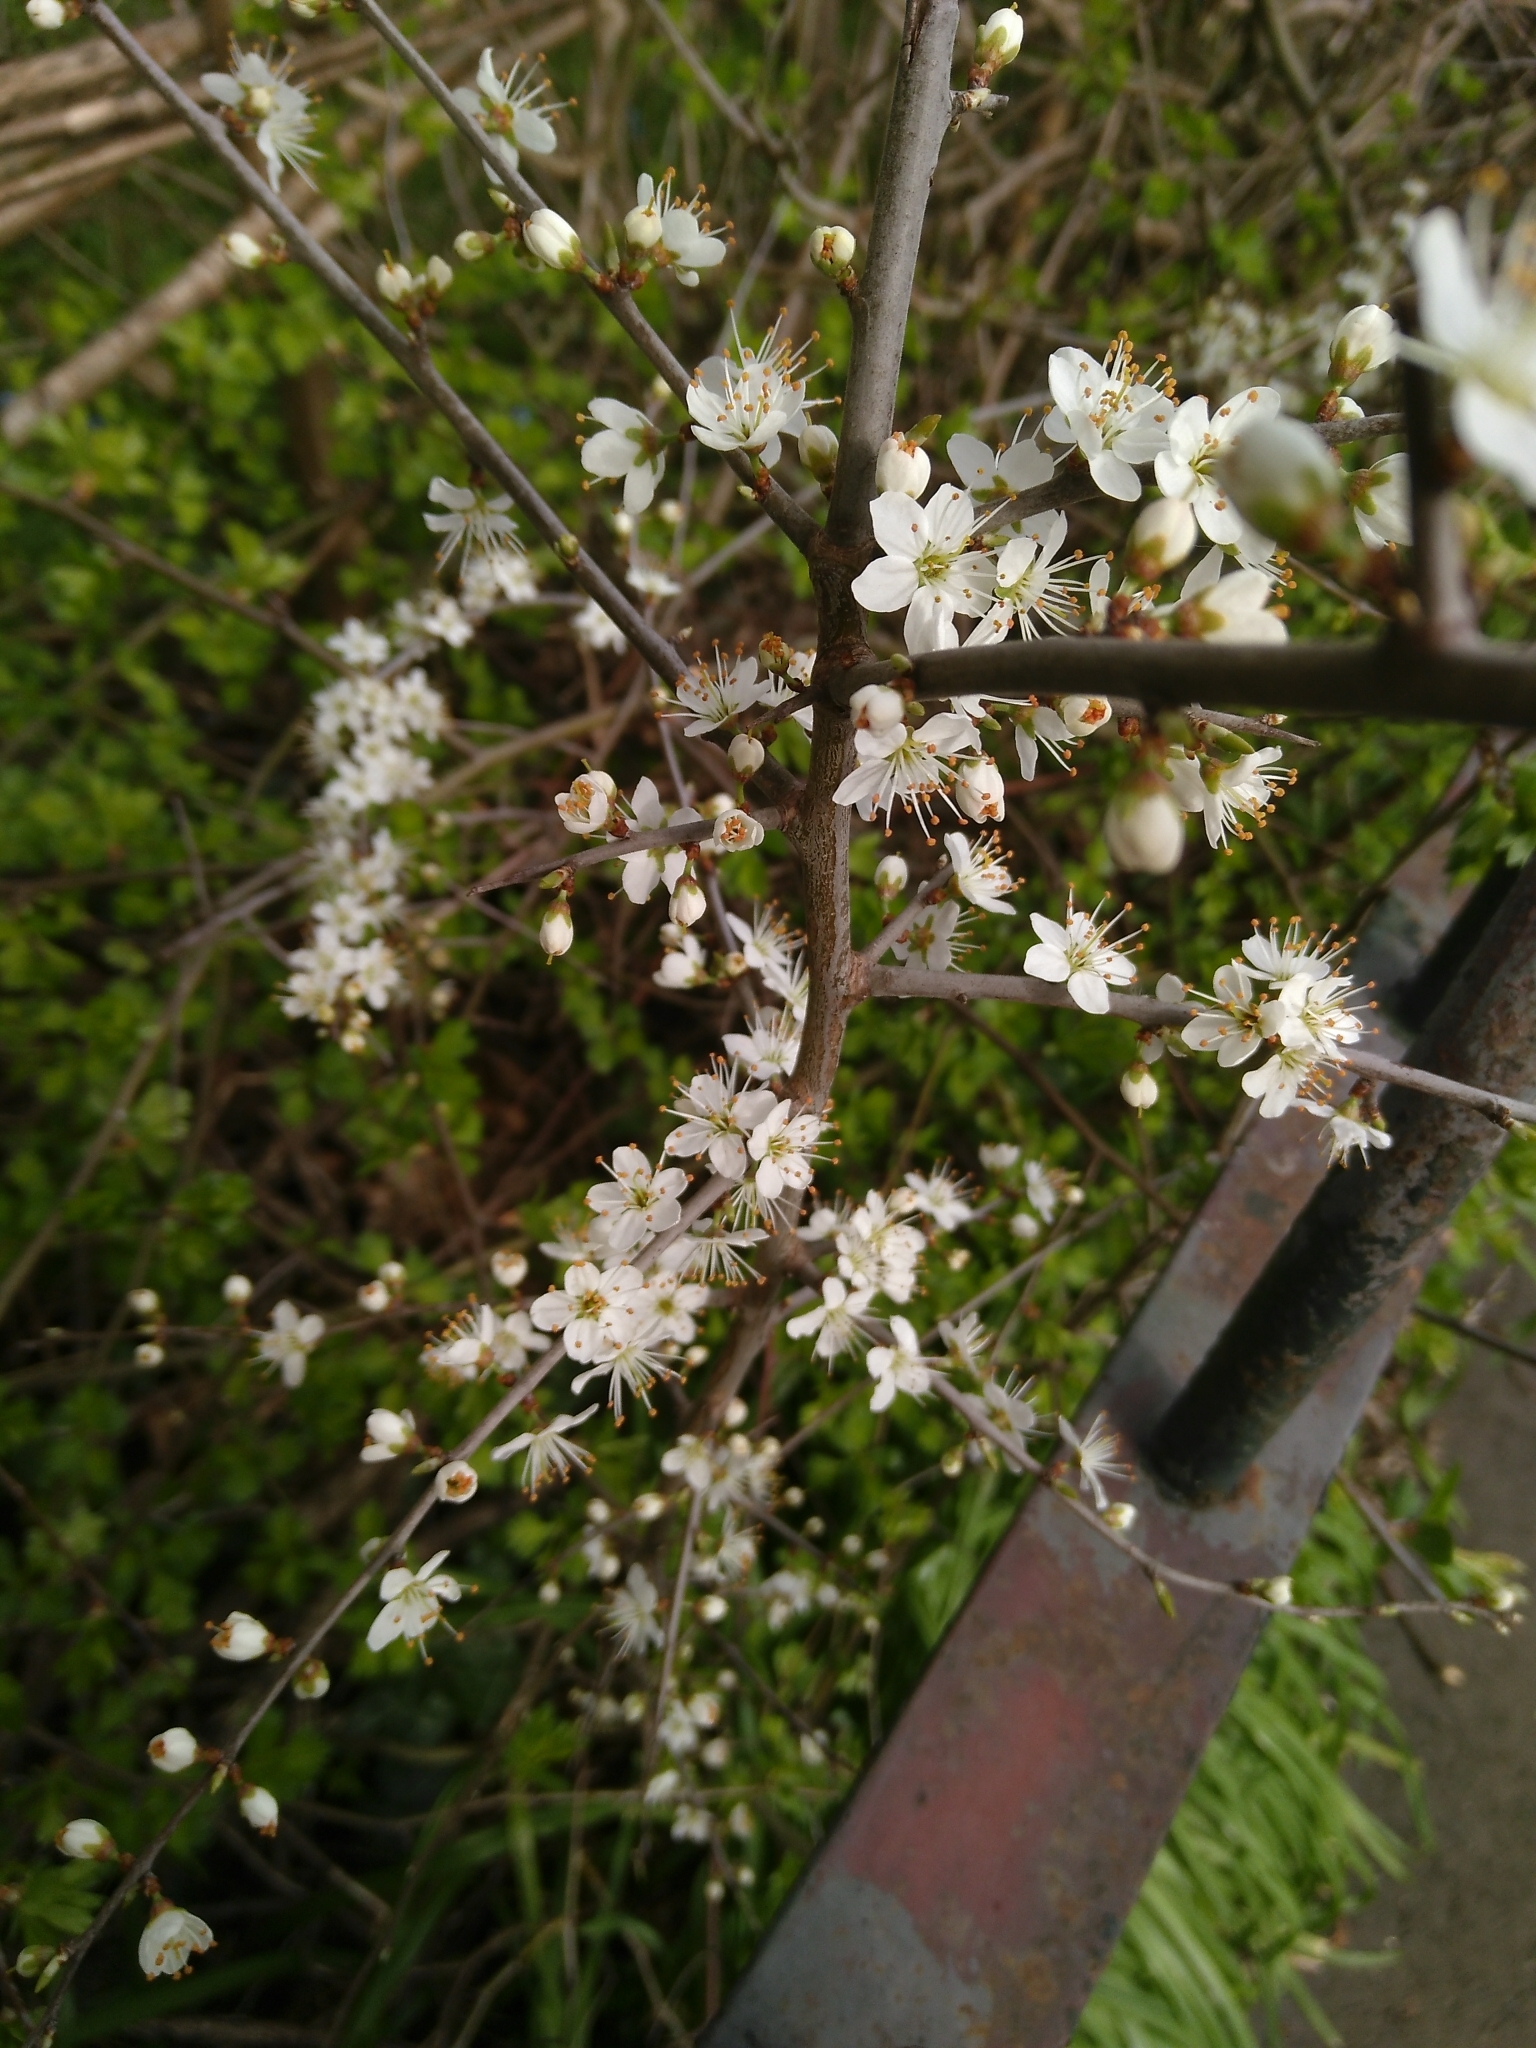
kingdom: Plantae
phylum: Tracheophyta
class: Magnoliopsida
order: Rosales
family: Rosaceae
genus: Prunus
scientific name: Prunus spinosa
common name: Blackthorn
